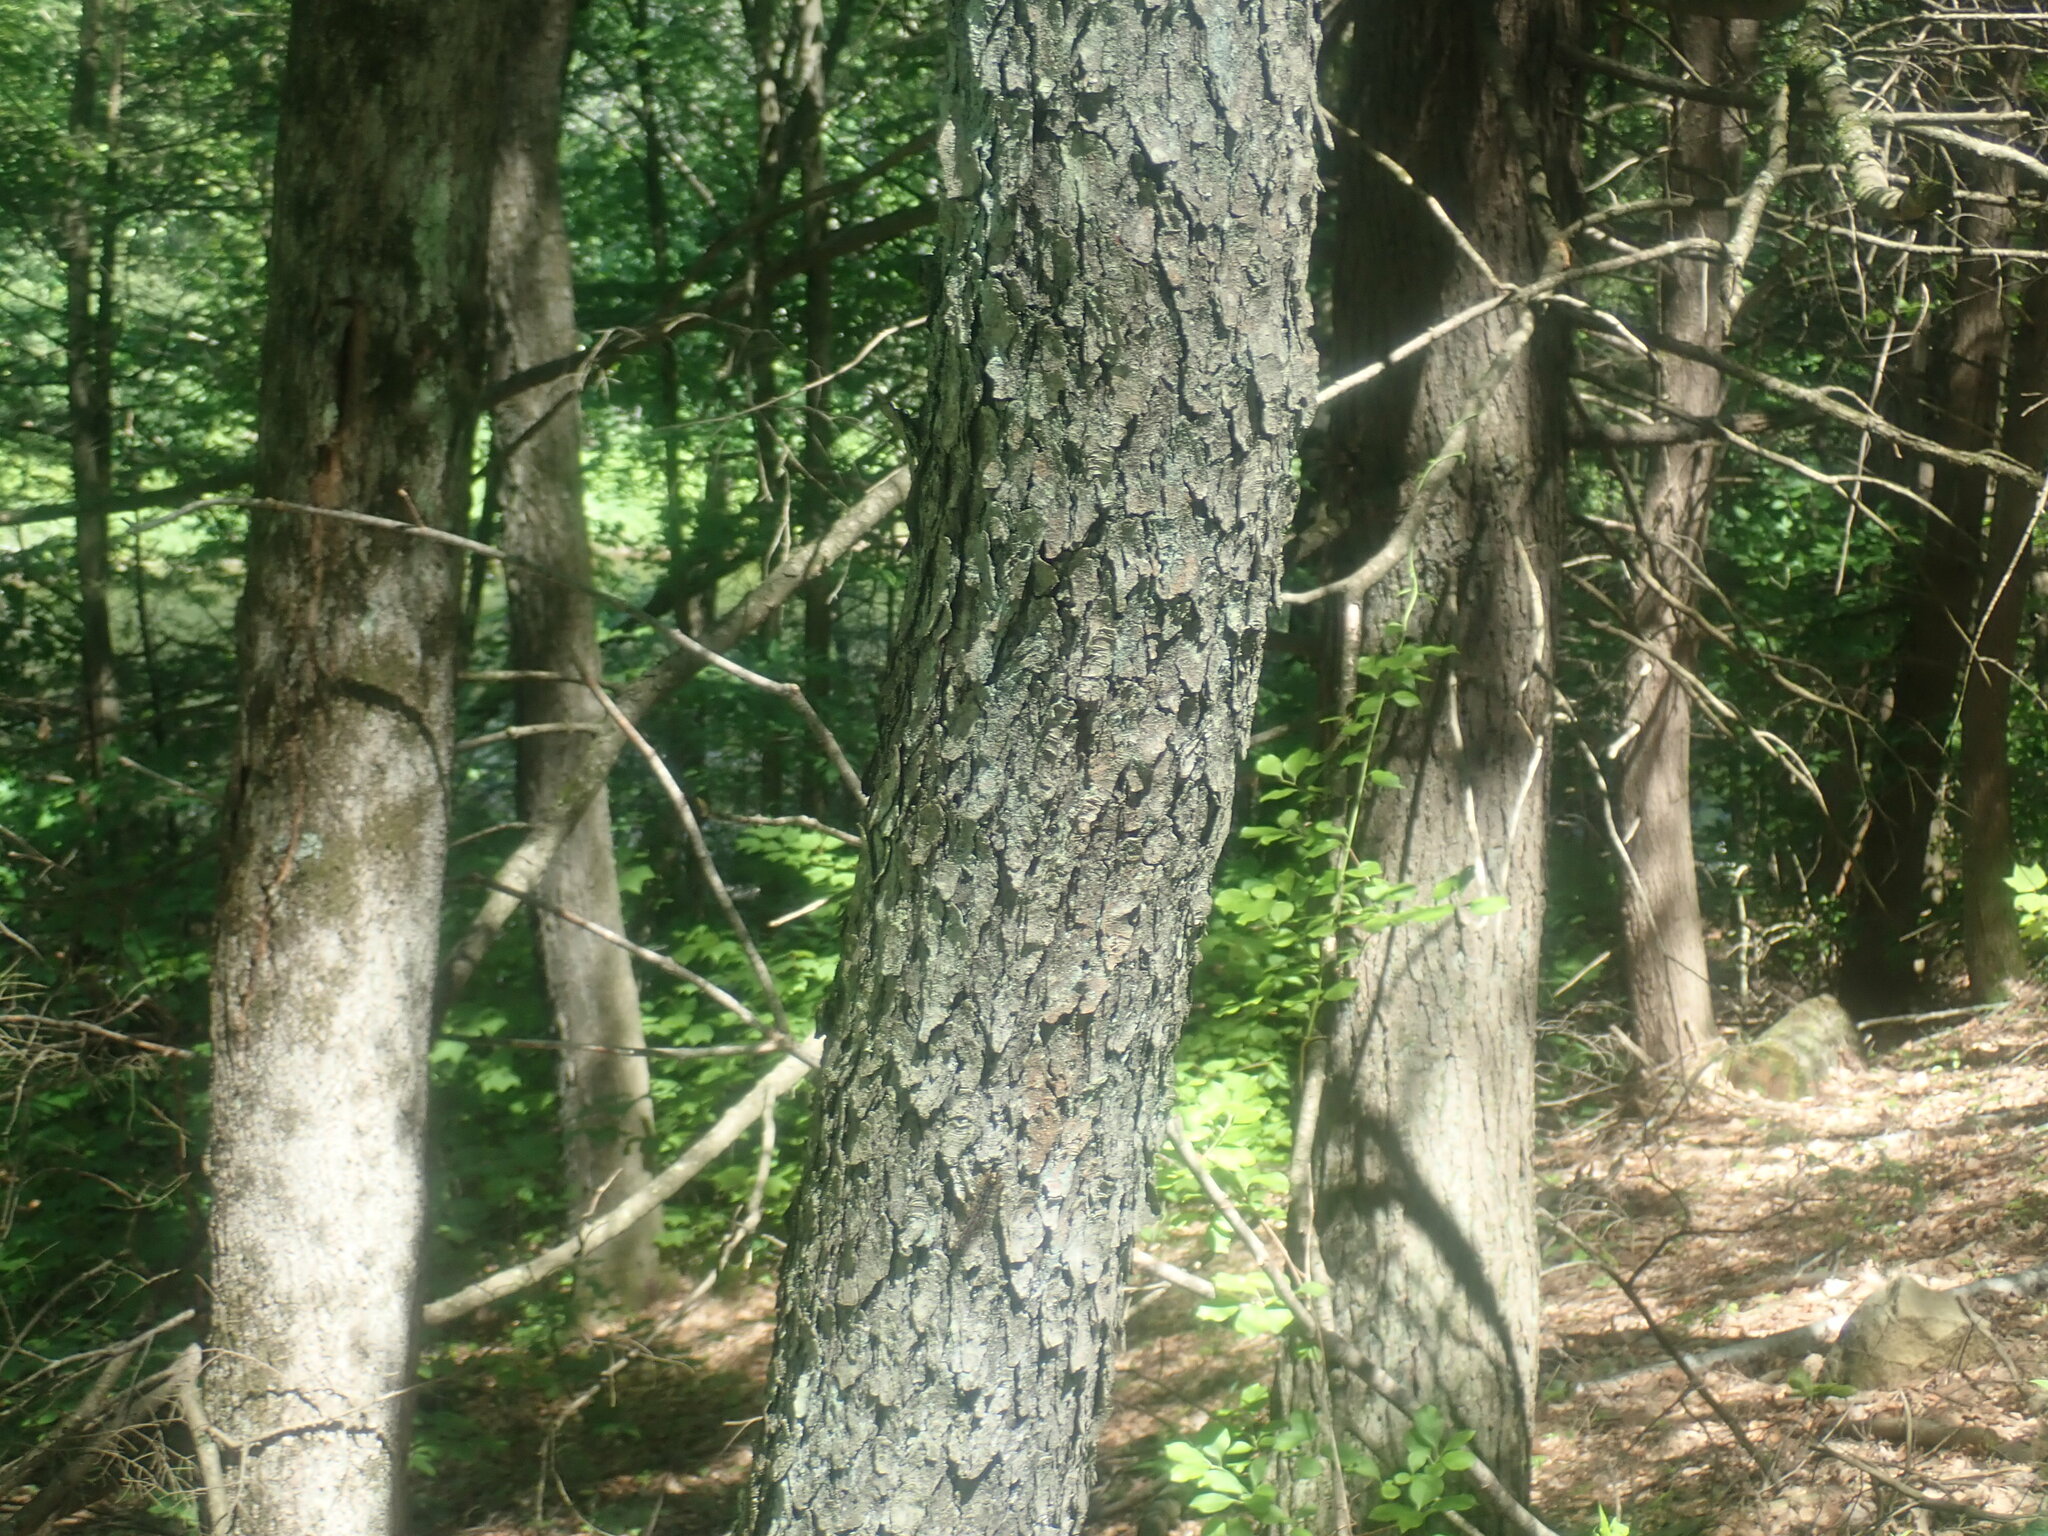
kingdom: Plantae
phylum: Tracheophyta
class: Magnoliopsida
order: Rosales
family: Rosaceae
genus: Prunus
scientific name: Prunus serotina
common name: Black cherry
